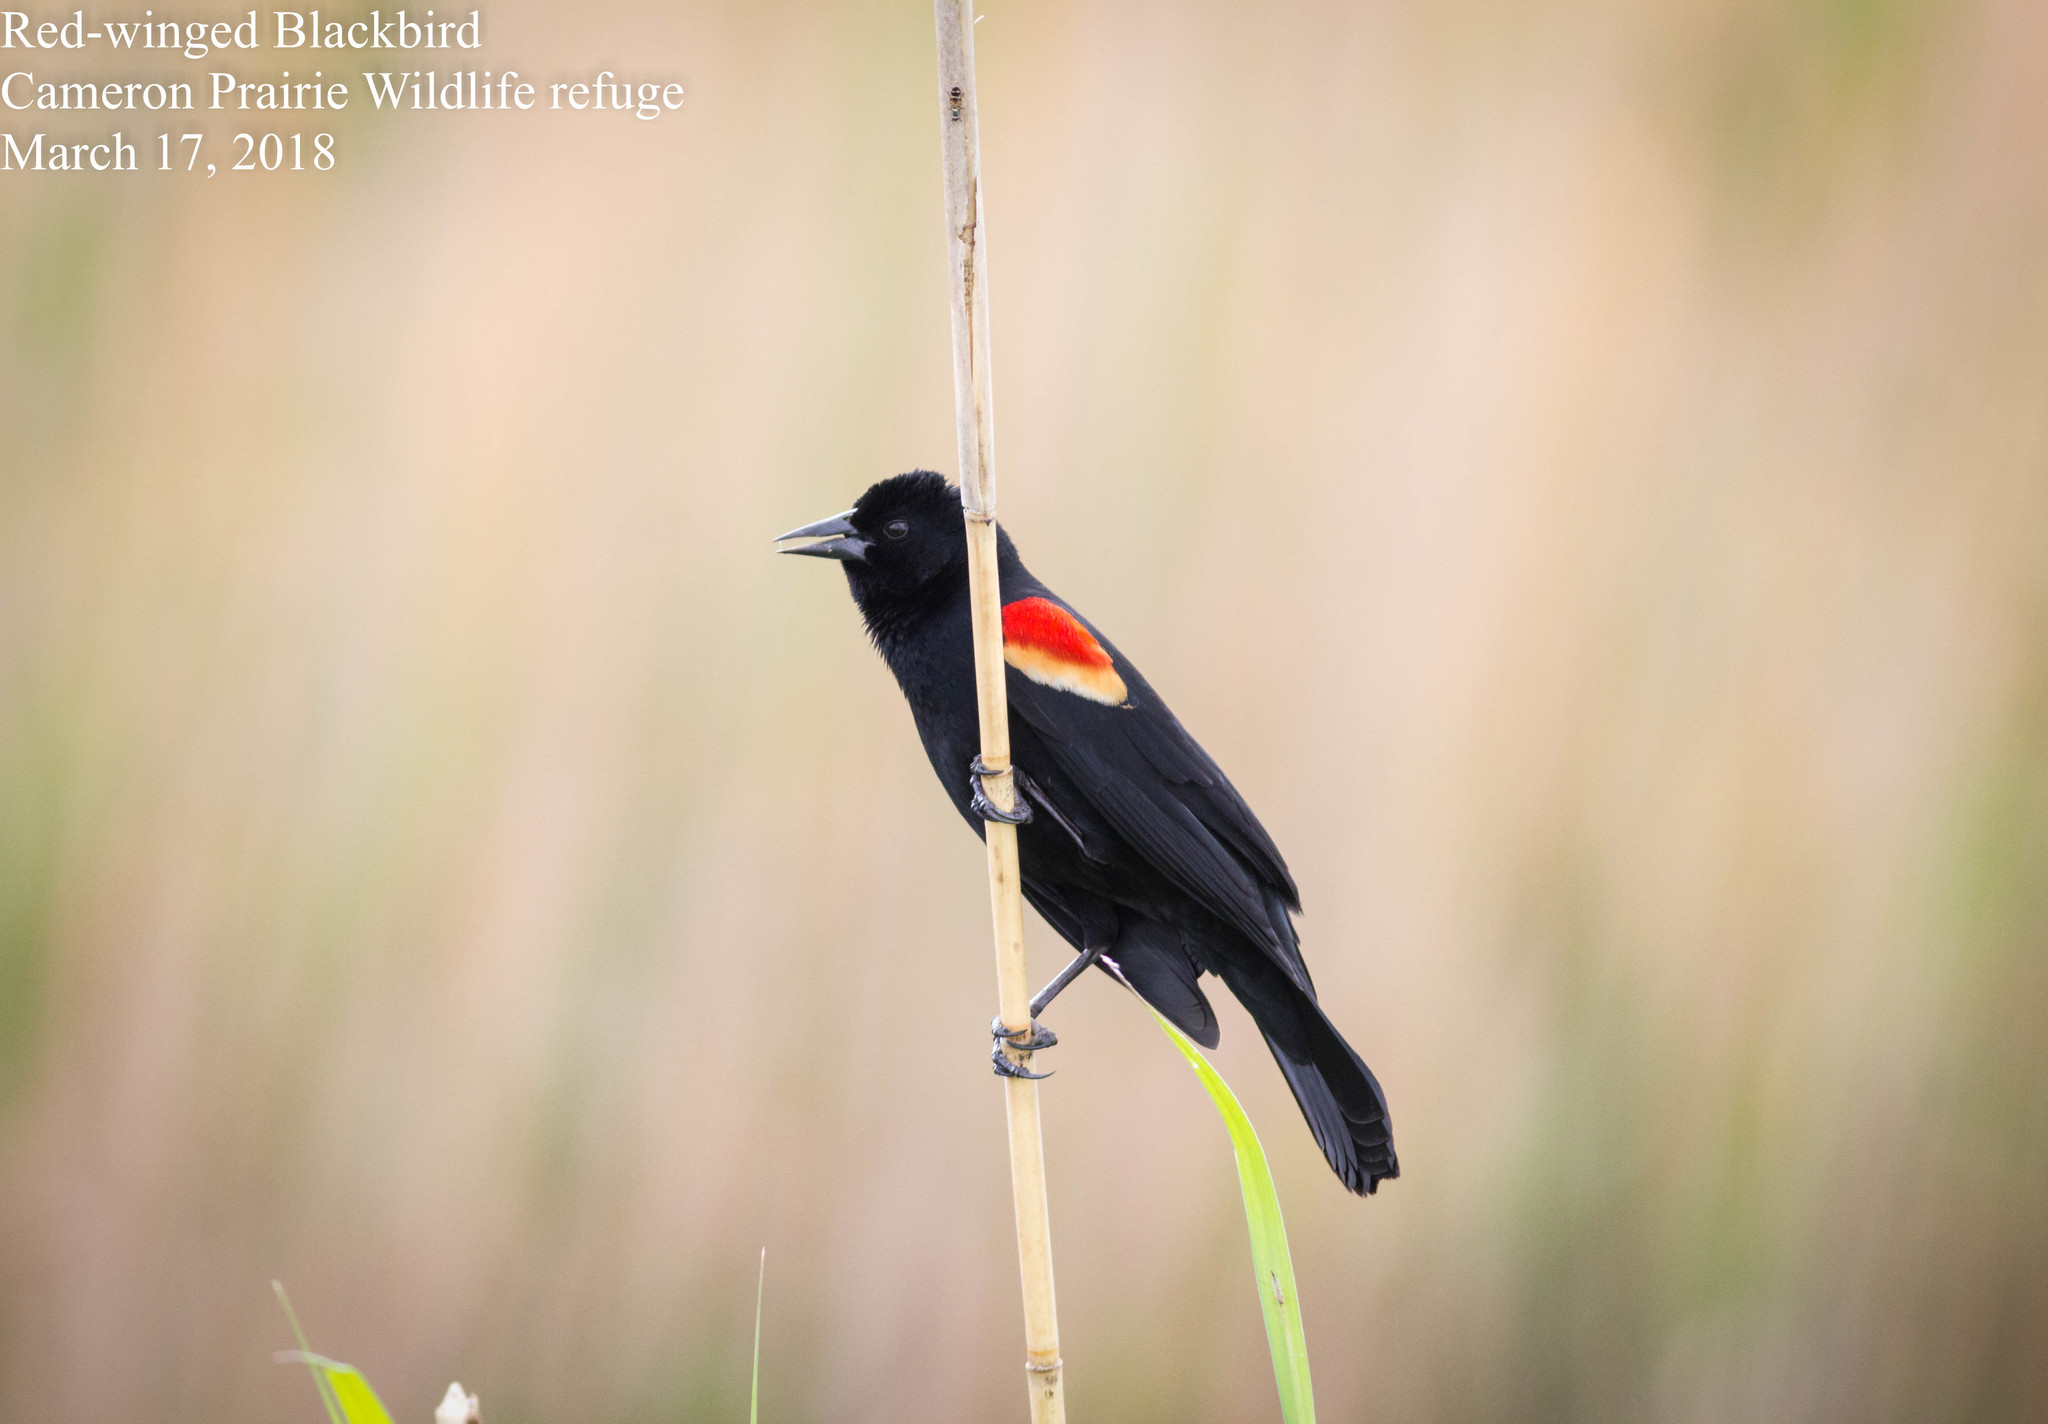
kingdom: Animalia
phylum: Chordata
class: Aves
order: Passeriformes
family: Icteridae
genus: Agelaius
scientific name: Agelaius phoeniceus
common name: Red-winged blackbird
